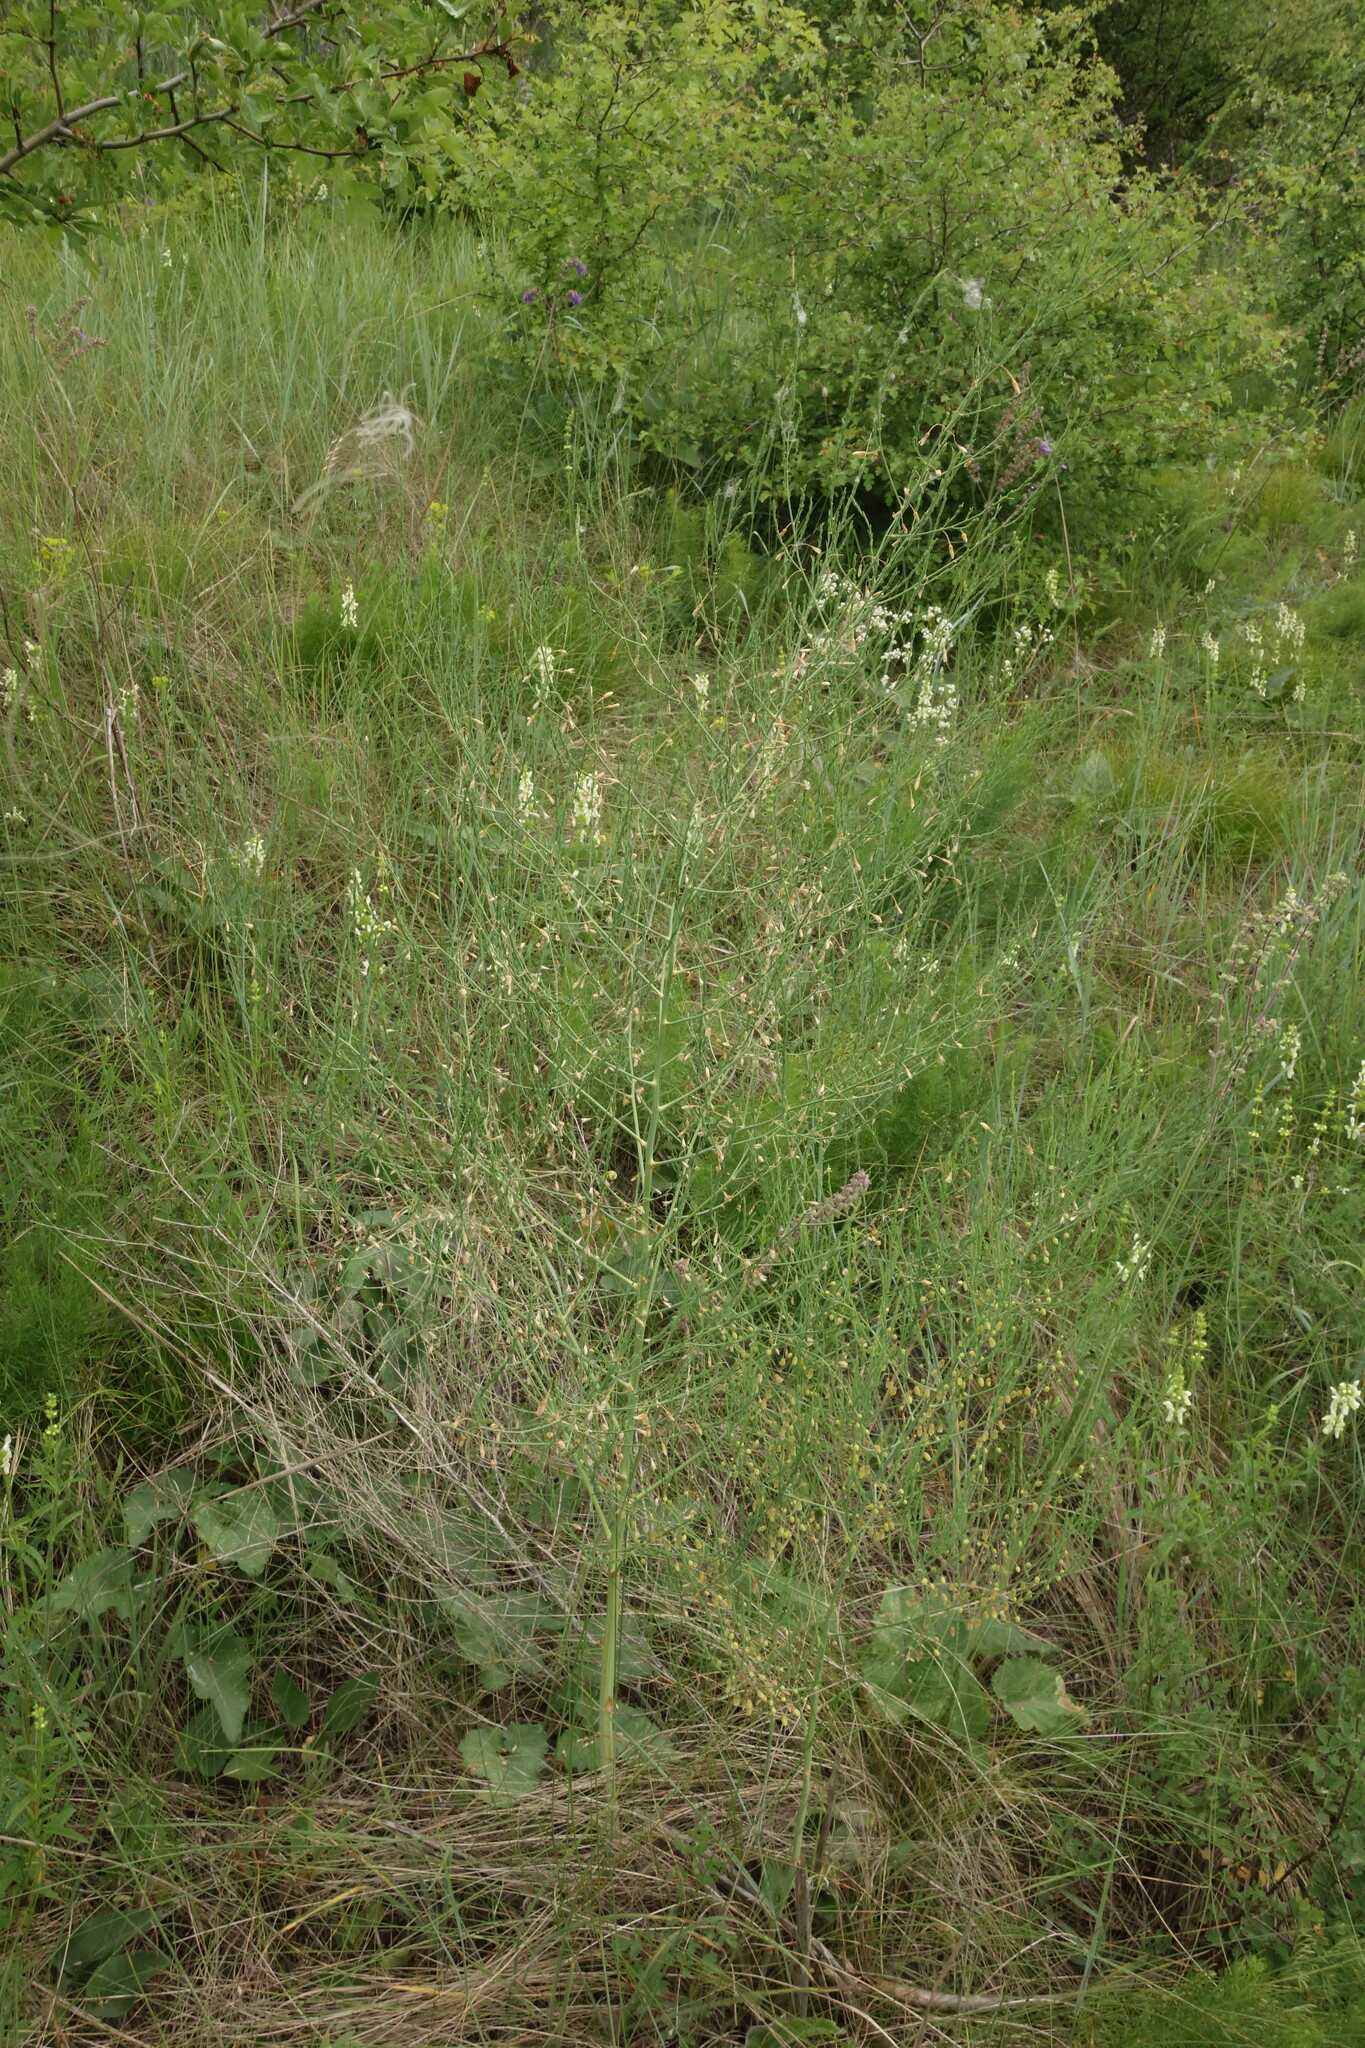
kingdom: Plantae
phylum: Tracheophyta
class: Liliopsida
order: Asparagales
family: Asparagaceae
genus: Asparagus
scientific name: Asparagus officinalis
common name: Garden asparagus
